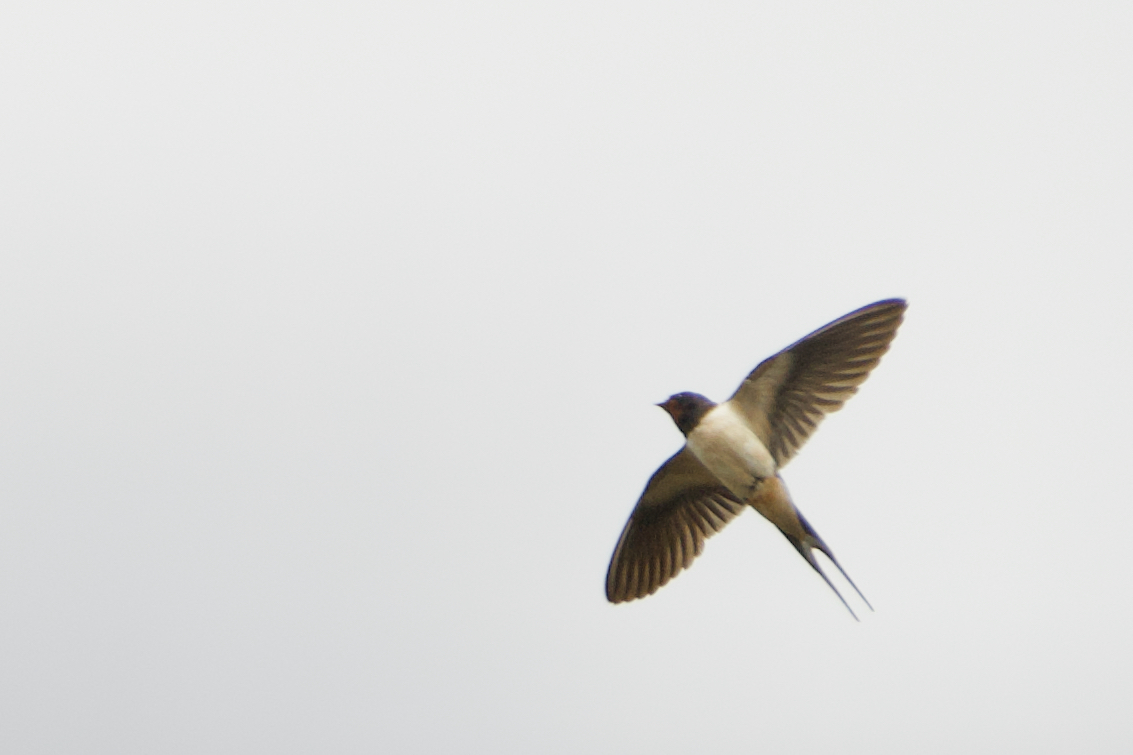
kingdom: Animalia
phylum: Chordata
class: Aves
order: Passeriformes
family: Hirundinidae
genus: Hirundo
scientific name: Hirundo rustica
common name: Barn swallow
